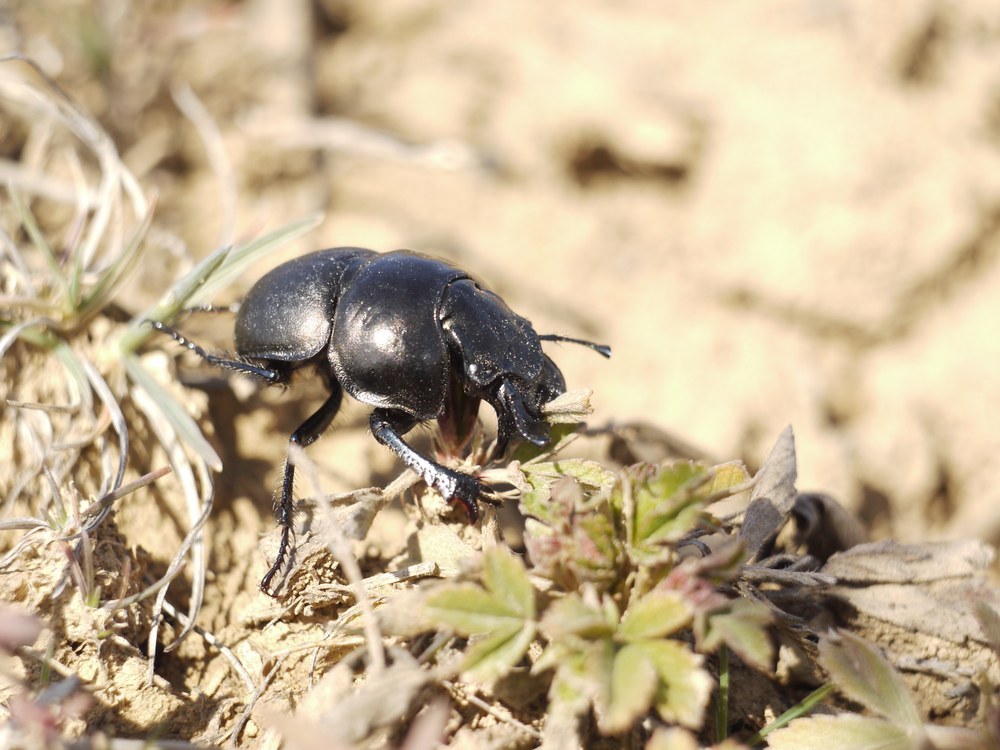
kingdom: Animalia
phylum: Arthropoda
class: Insecta
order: Coleoptera
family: Geotrupidae
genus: Lethrus
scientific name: Lethrus apterus
